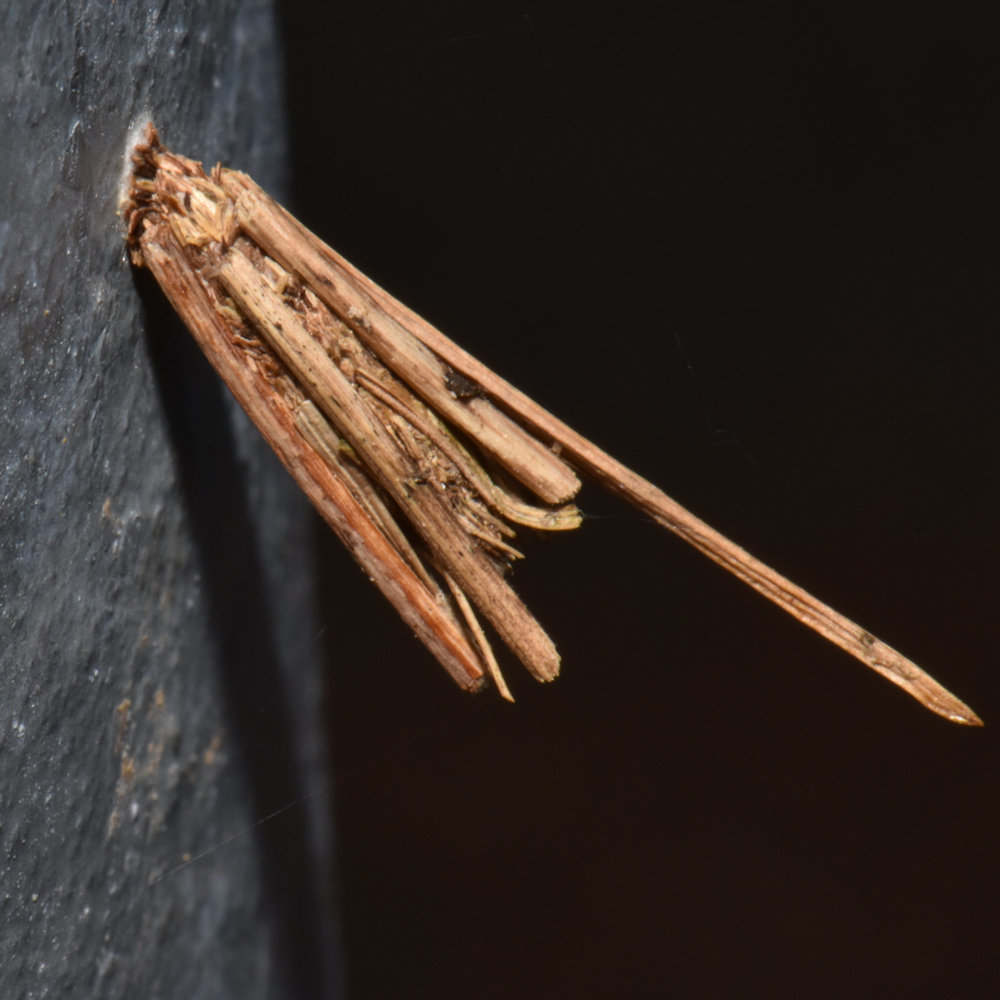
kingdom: Animalia
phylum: Arthropoda
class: Insecta
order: Lepidoptera
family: Psychidae
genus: Psyche
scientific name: Psyche casta
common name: Common sweep
